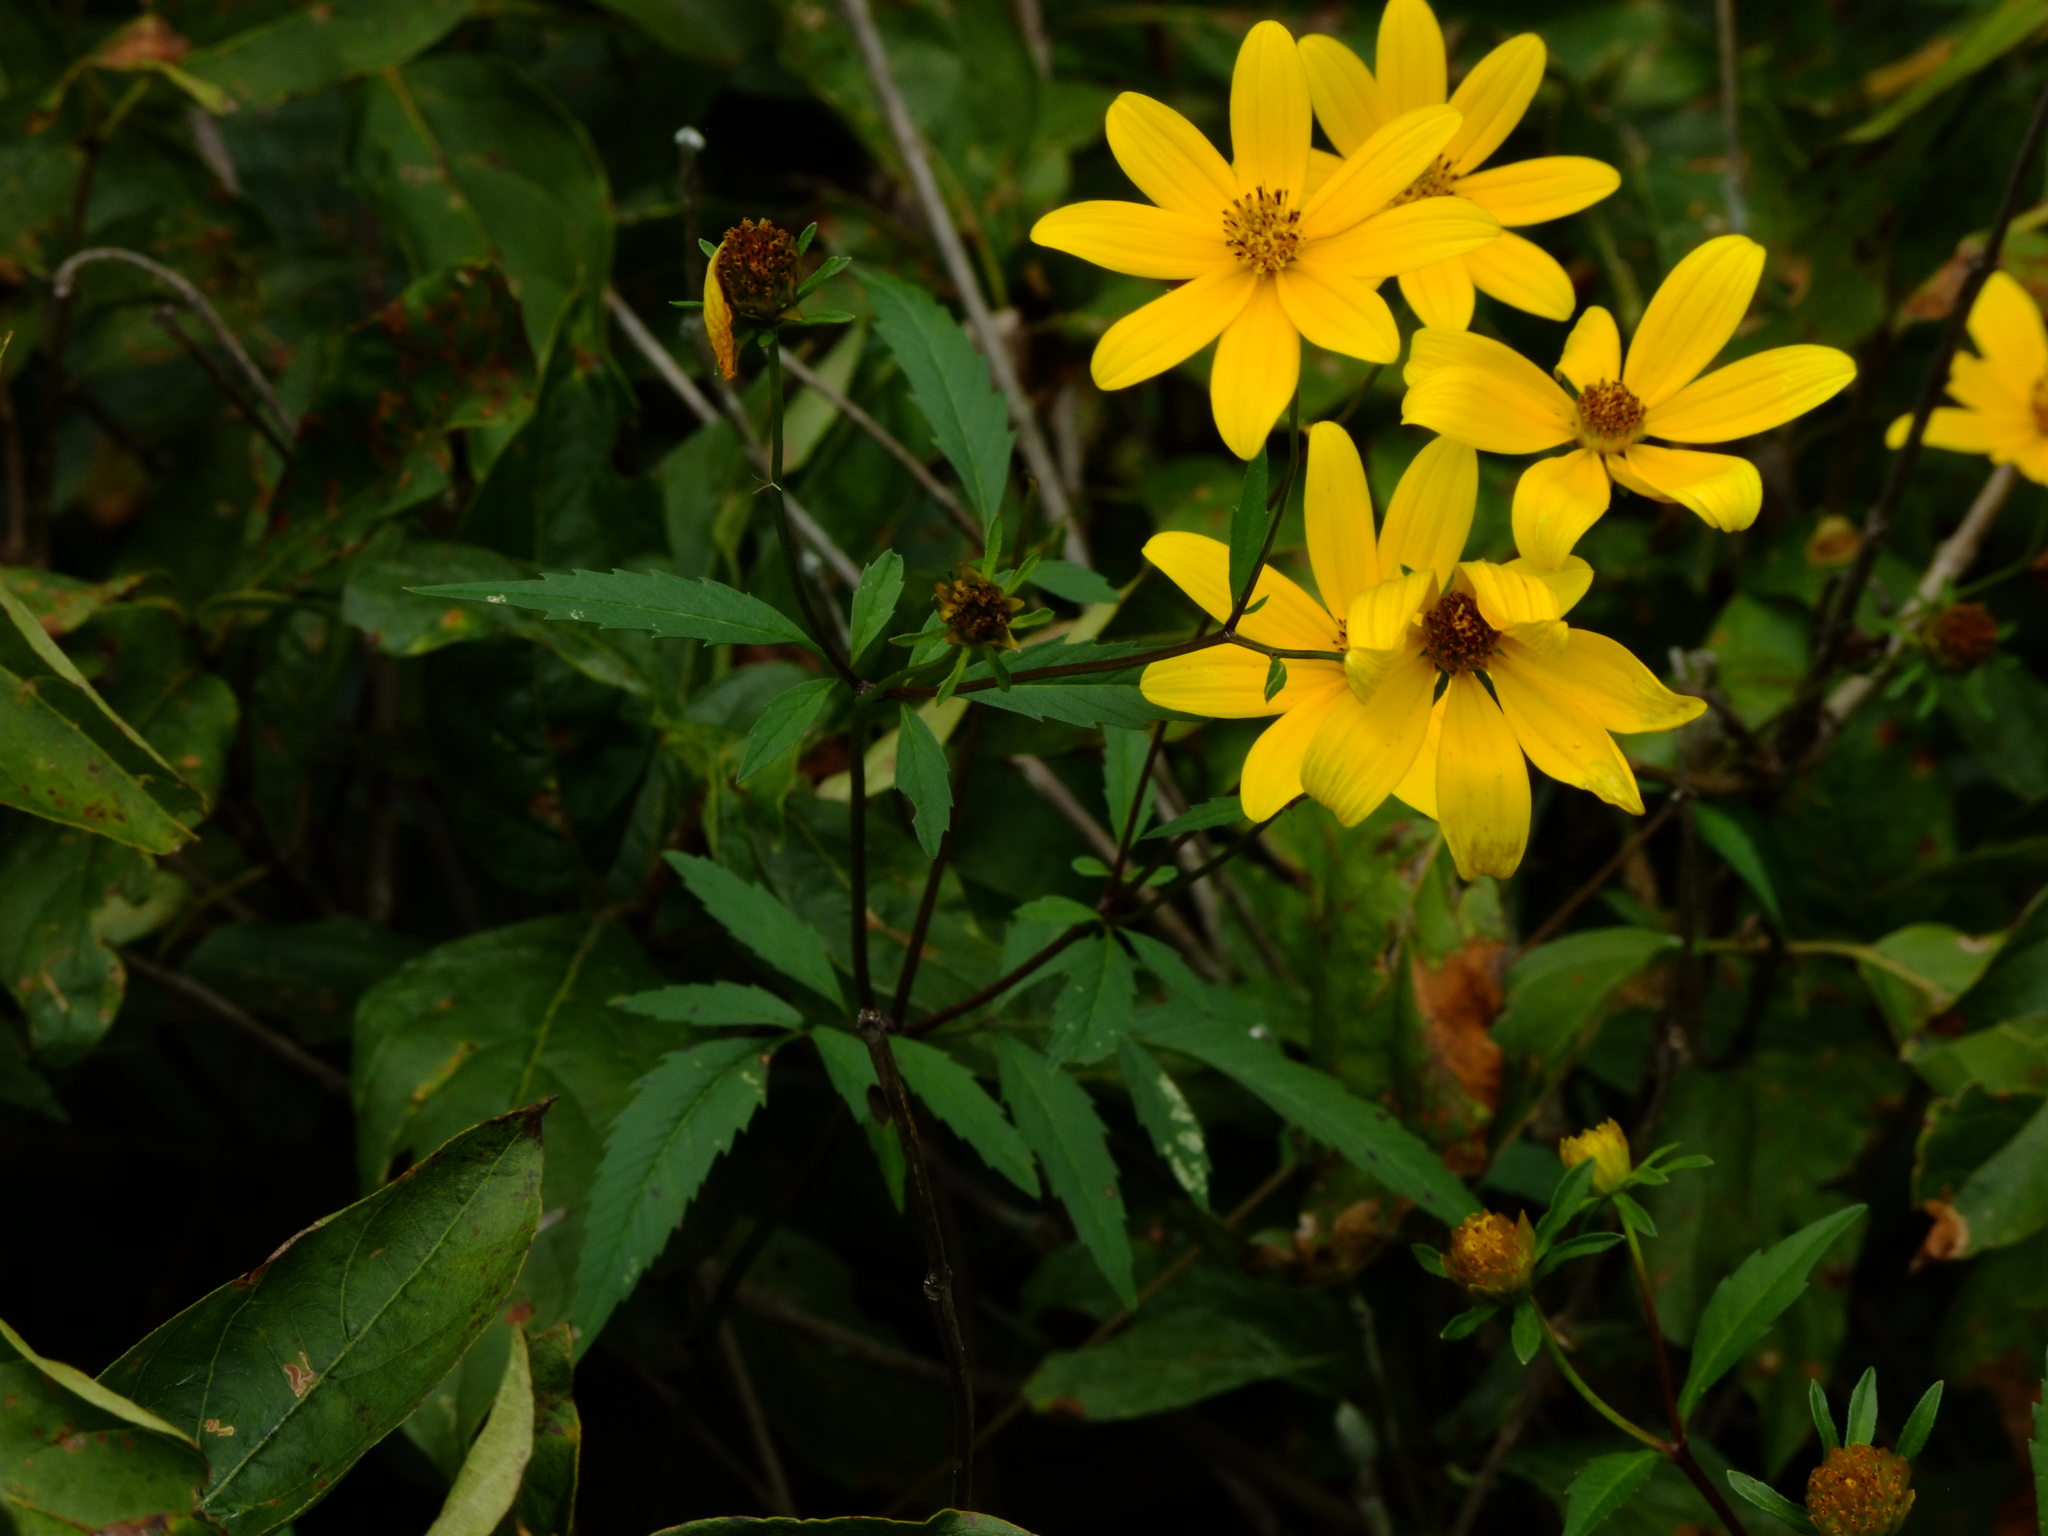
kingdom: Plantae
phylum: Tracheophyta
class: Magnoliopsida
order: Asterales
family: Asteraceae
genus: Bidens
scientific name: Bidens aristosa
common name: Western tickseed
